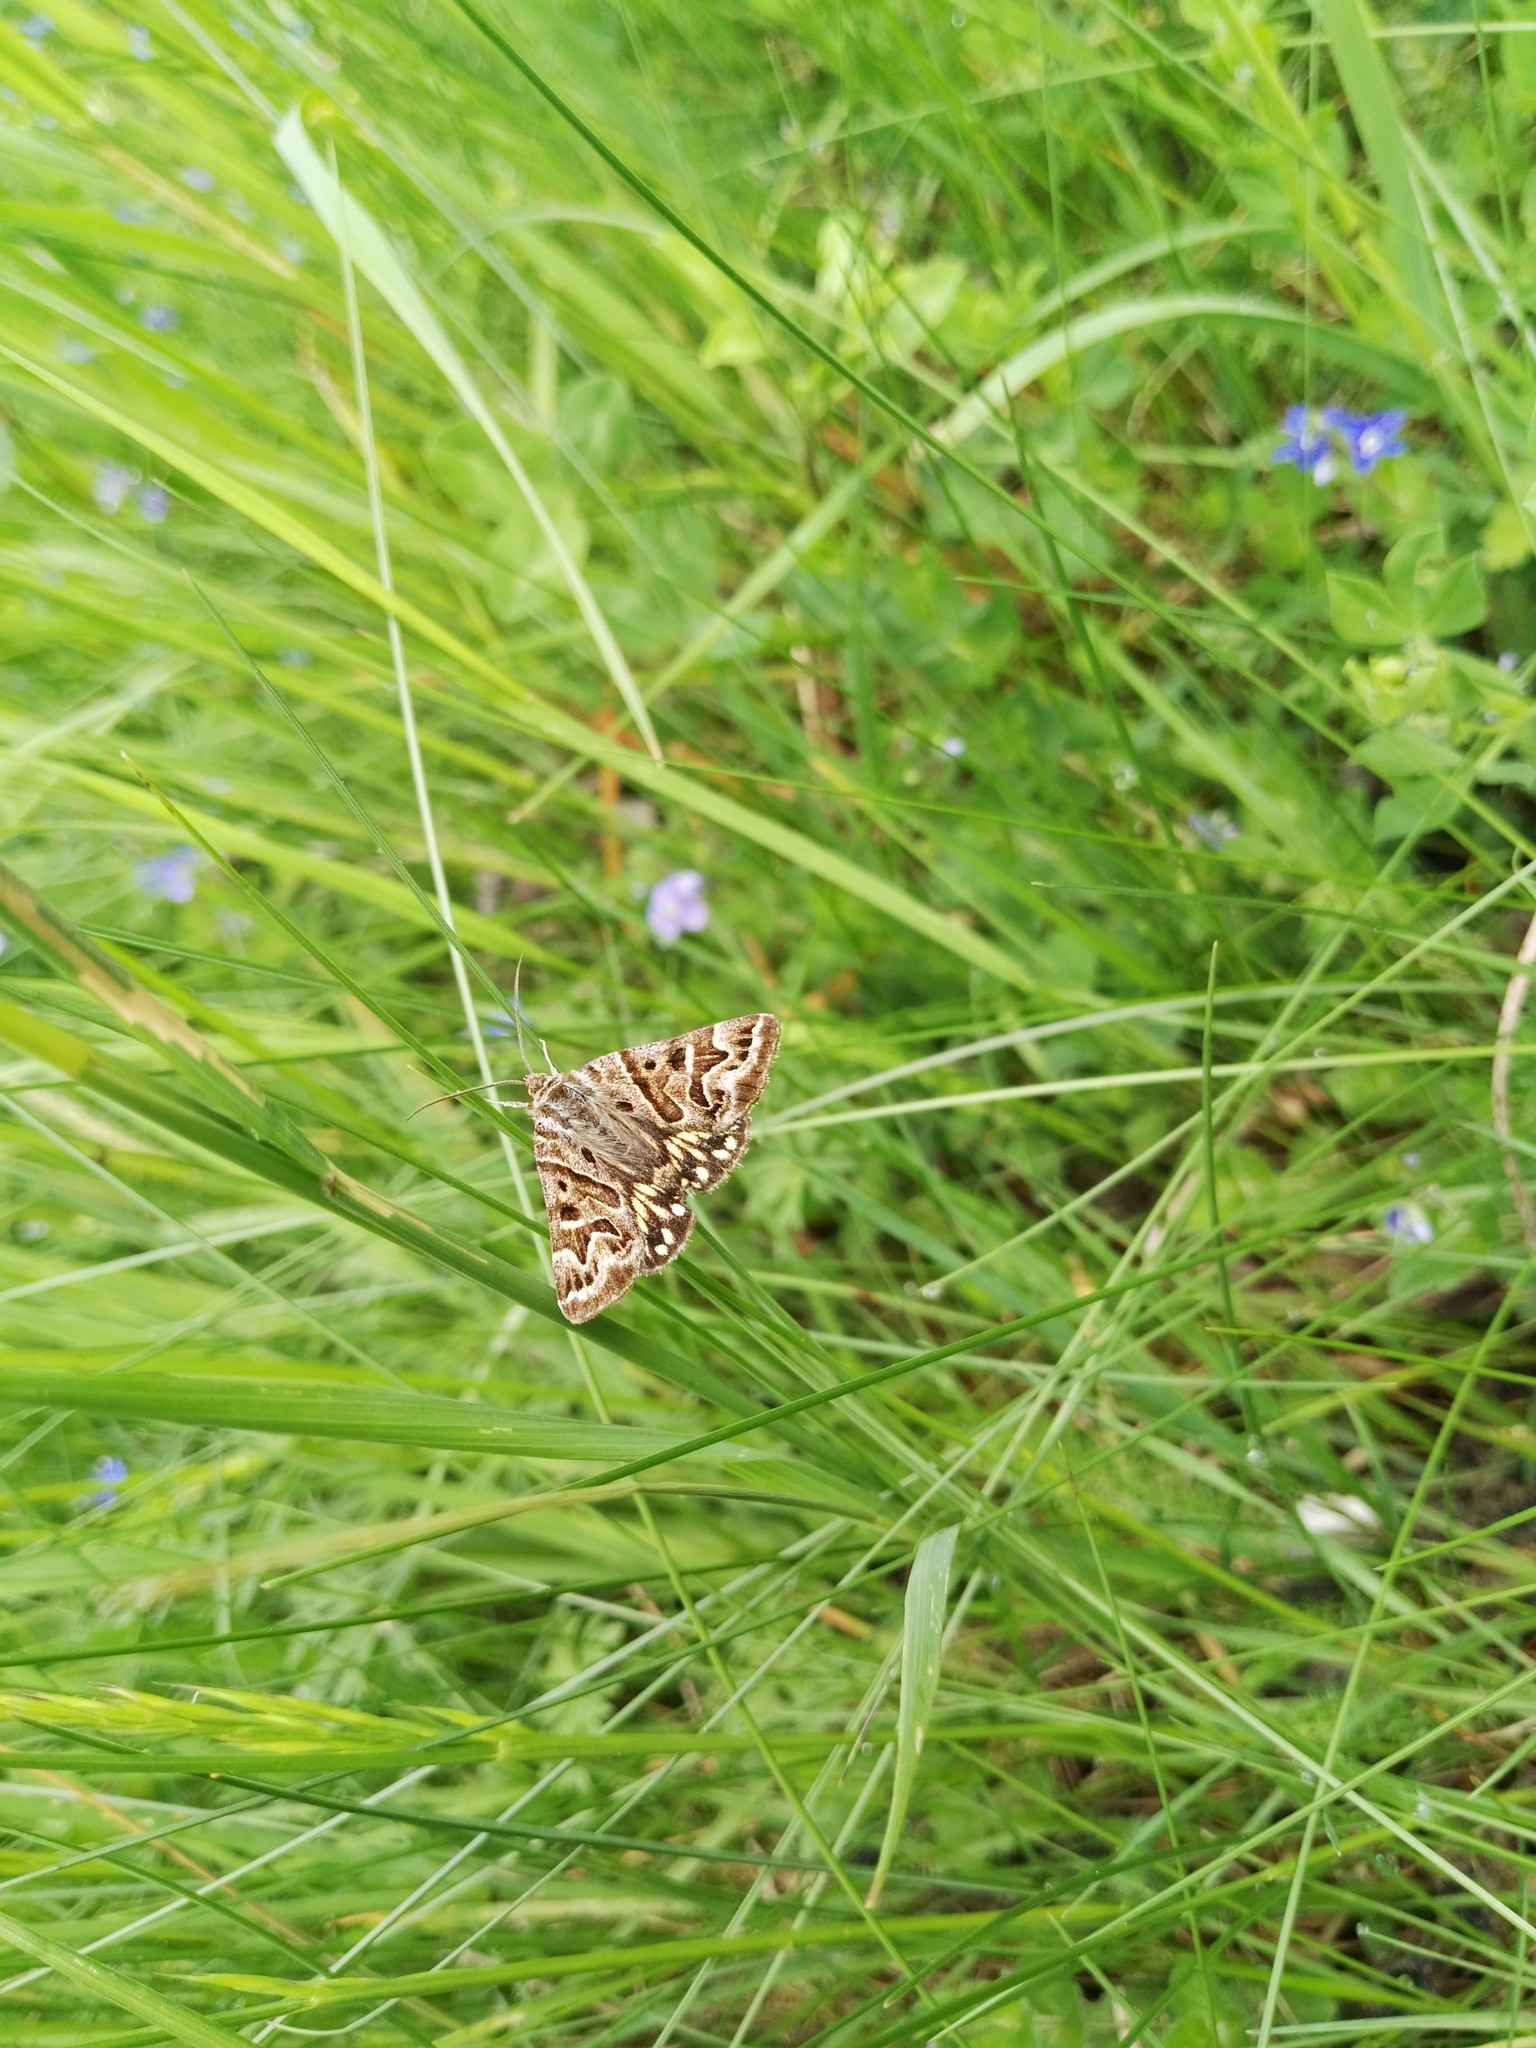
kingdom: Animalia
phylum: Arthropoda
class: Insecta
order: Lepidoptera
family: Erebidae
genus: Callistege
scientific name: Callistege mi
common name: Mother shipton
